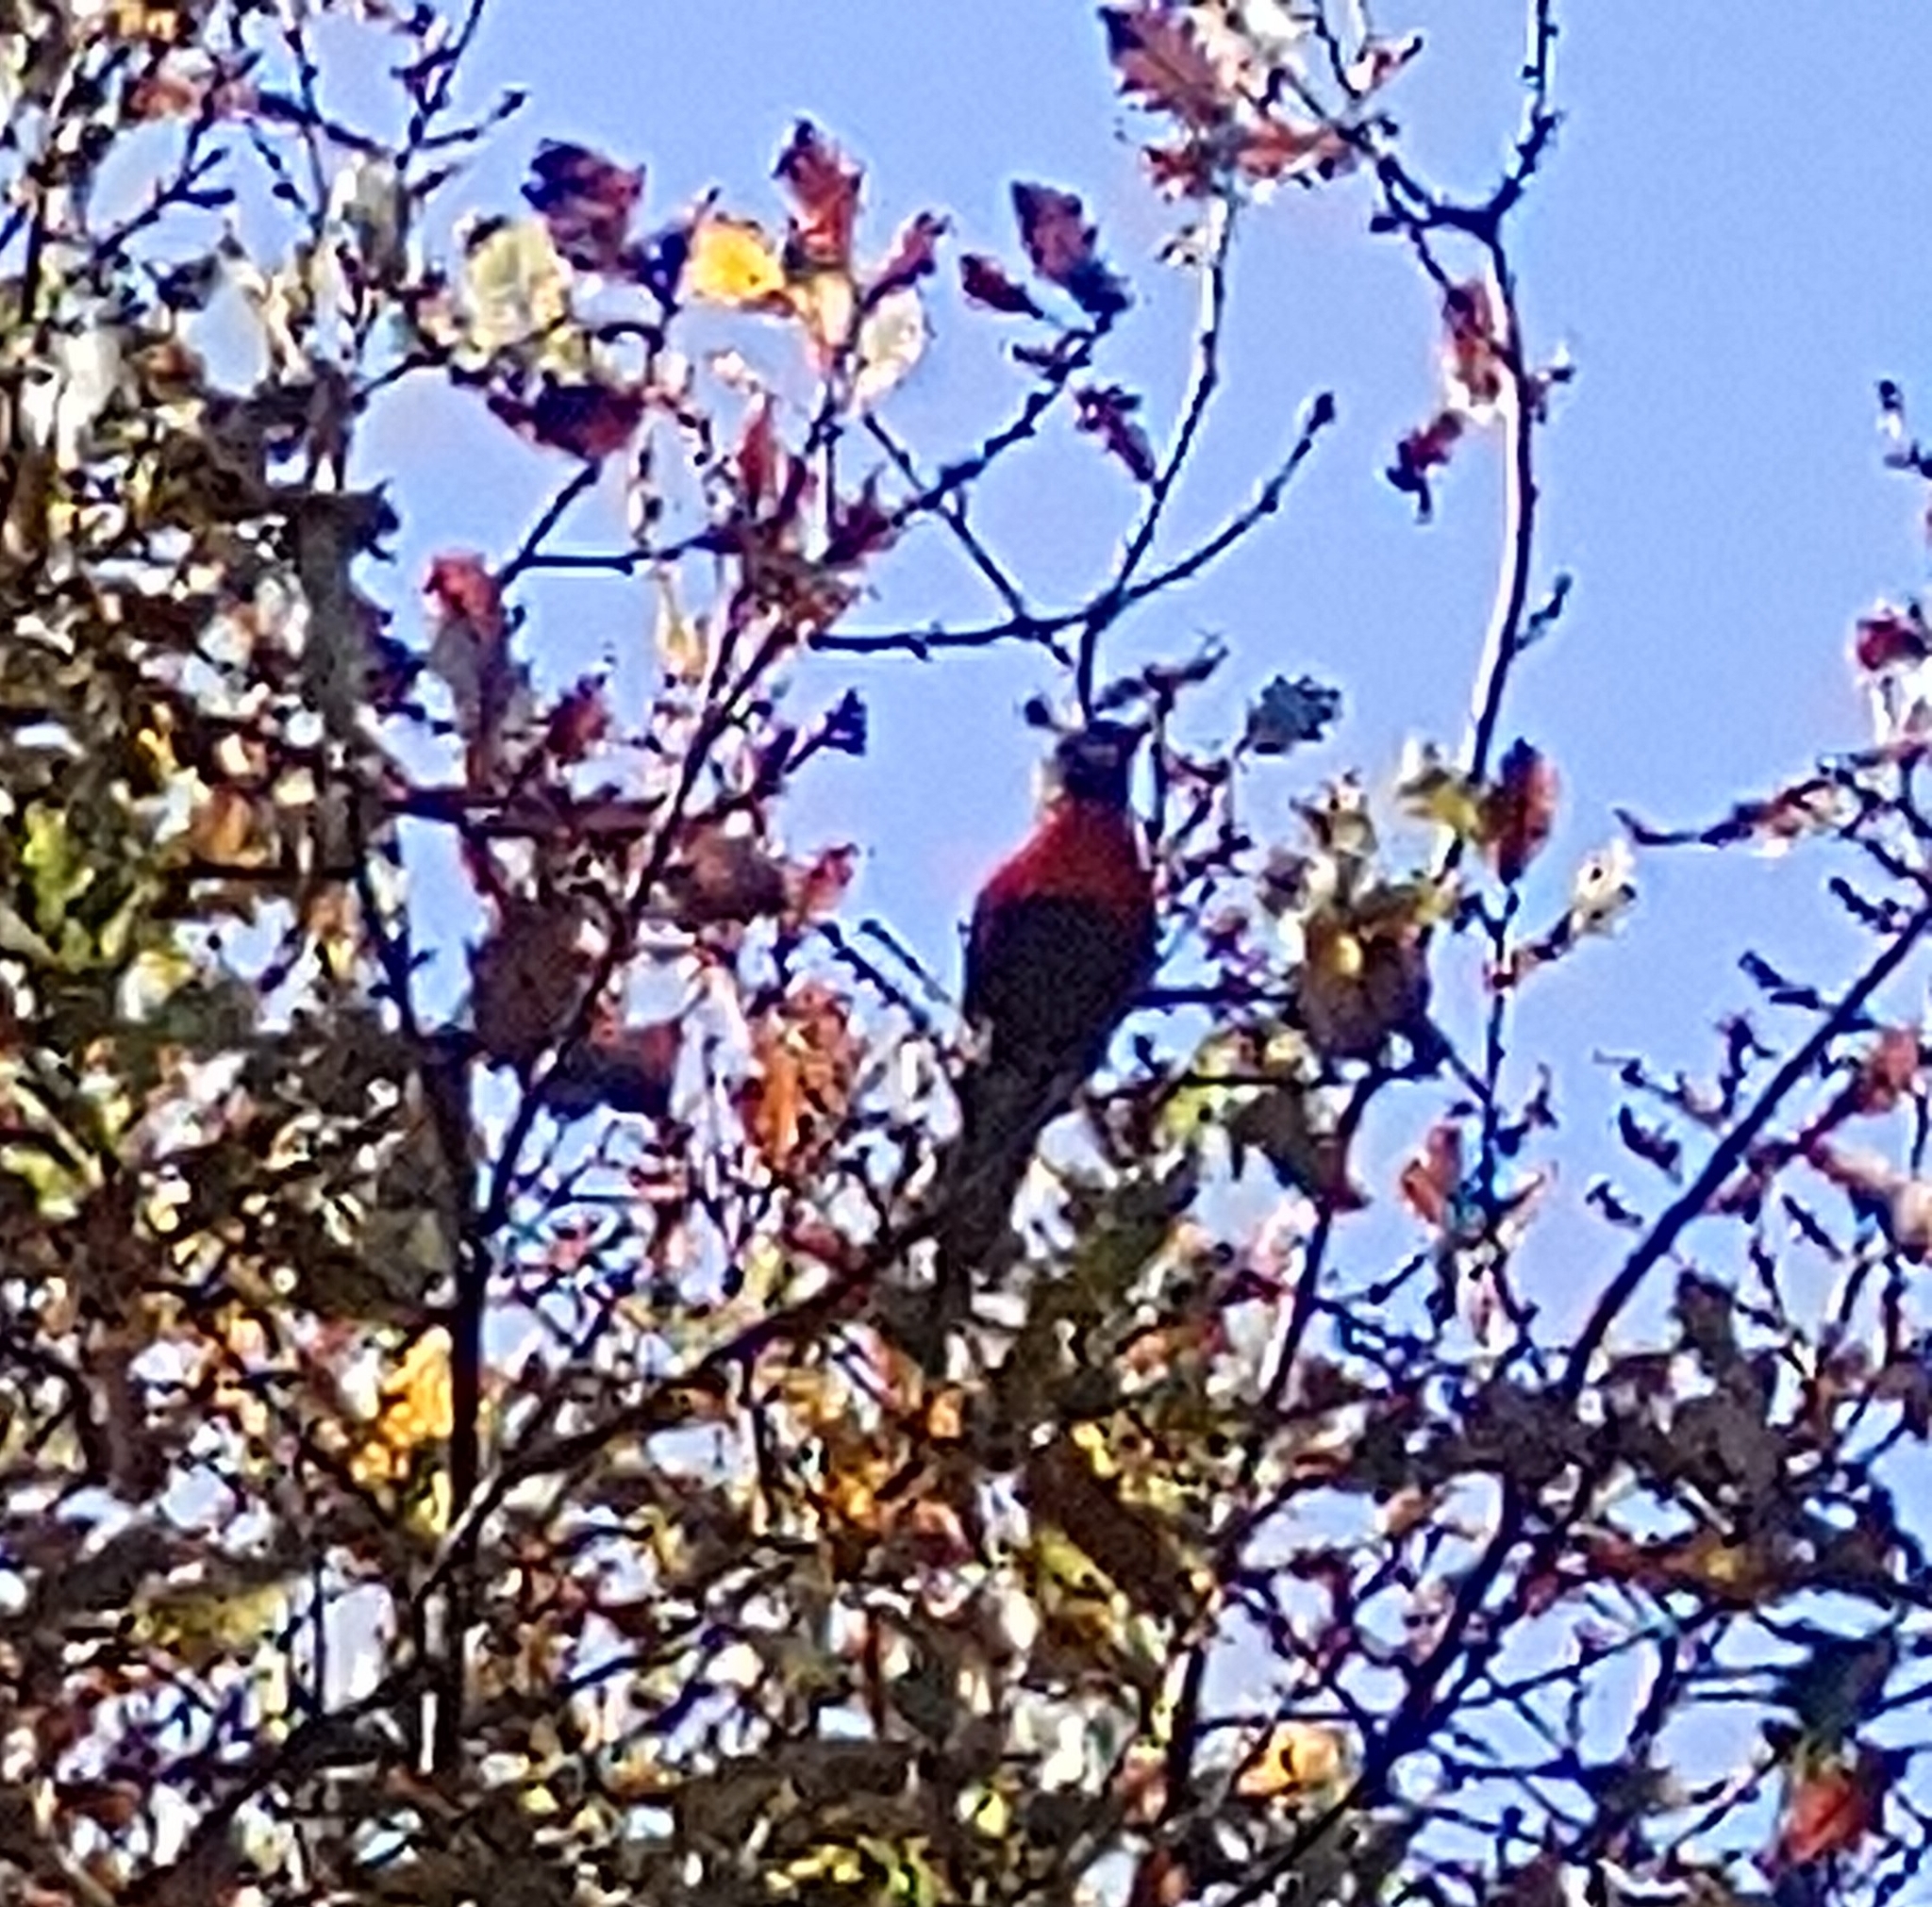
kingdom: Animalia
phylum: Chordata
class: Aves
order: Psittaciformes
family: Psittacidae
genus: Trichoglossus
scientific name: Trichoglossus haematodus
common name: Coconut lorikeet
